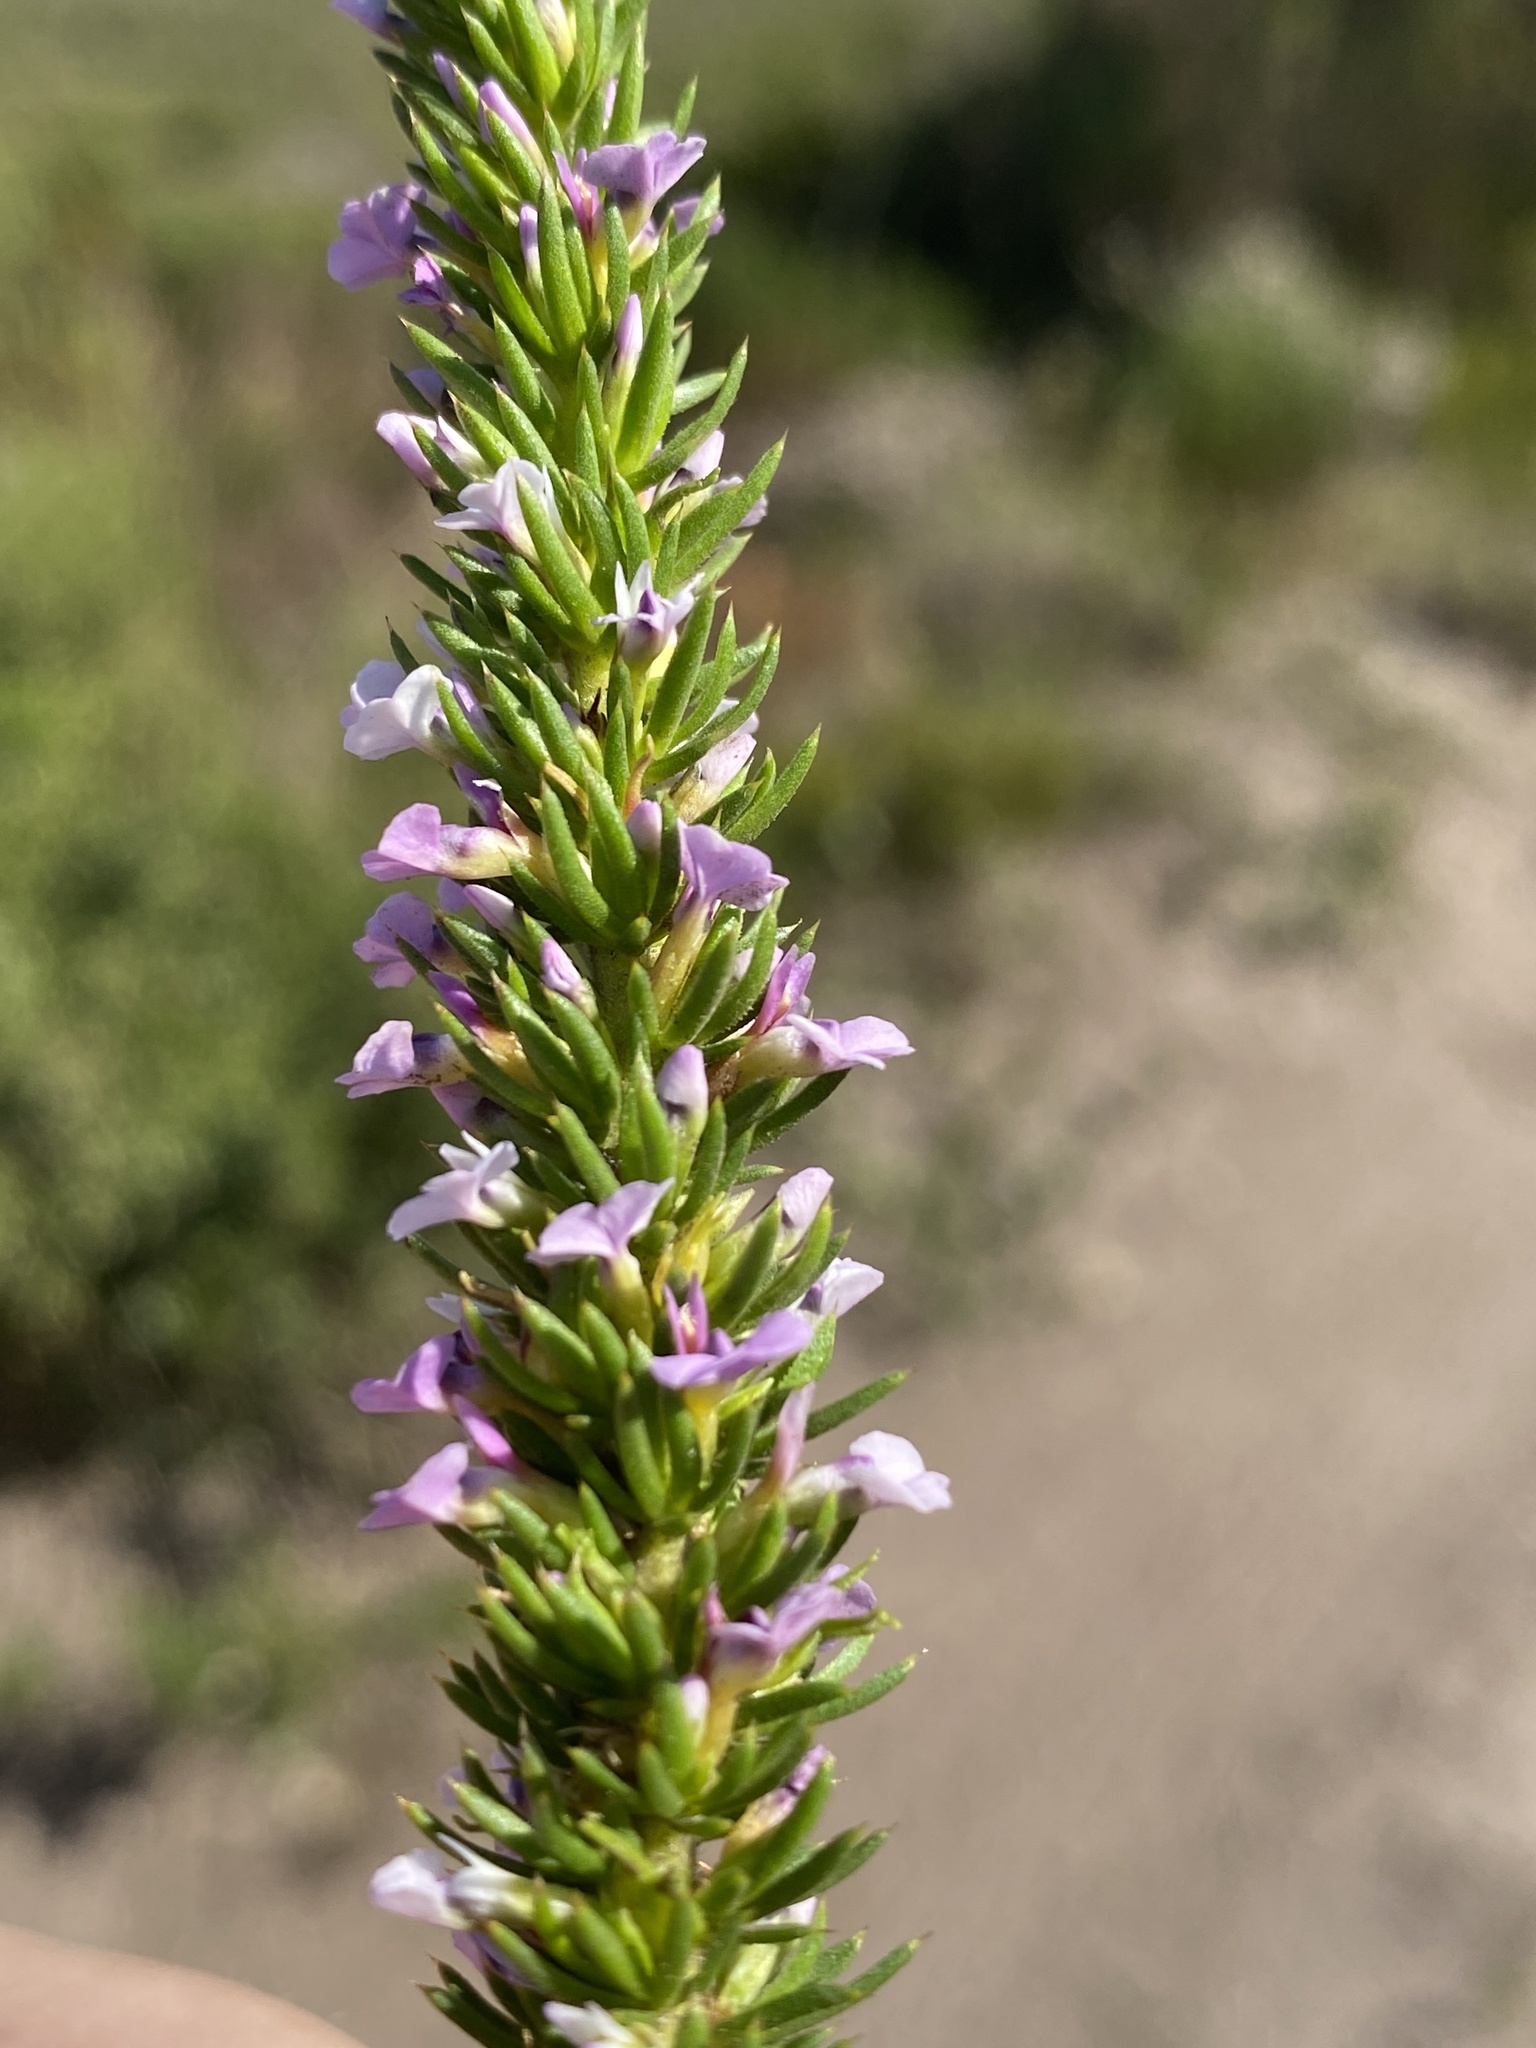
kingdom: Plantae
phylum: Tracheophyta
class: Magnoliopsida
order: Fabales
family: Polygalaceae
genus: Muraltia
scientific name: Muraltia salsolacea
